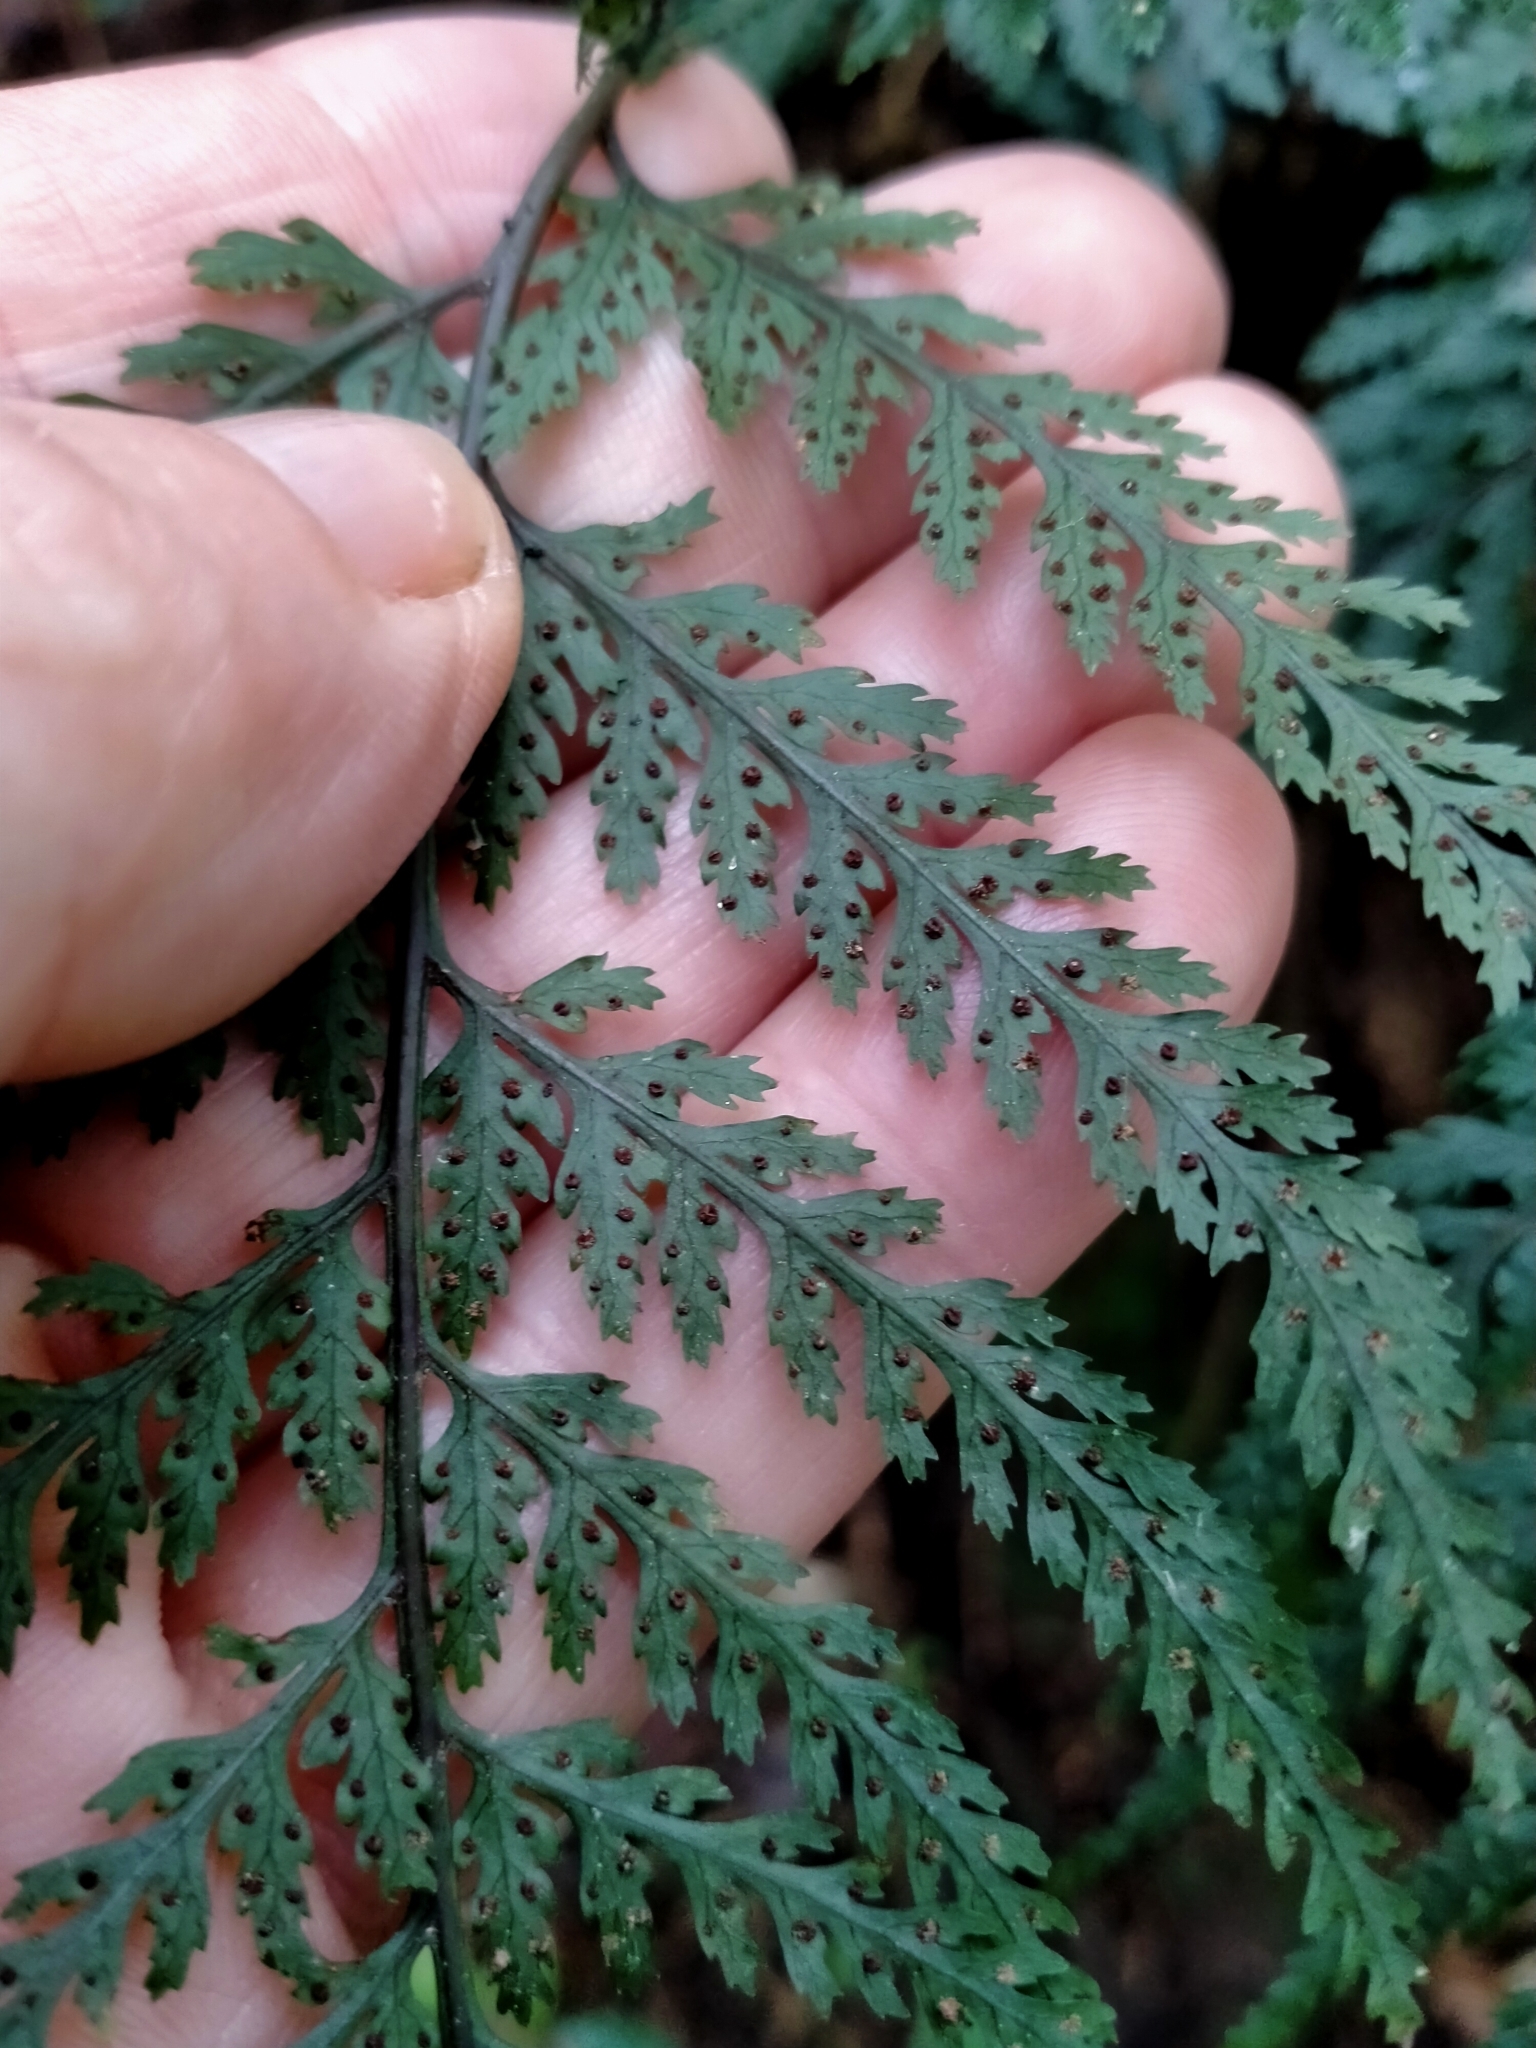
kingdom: Plantae
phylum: Tracheophyta
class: Polypodiopsida
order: Polypodiales
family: Dryopteridaceae
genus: Parapolystichum
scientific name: Parapolystichum glabellum
